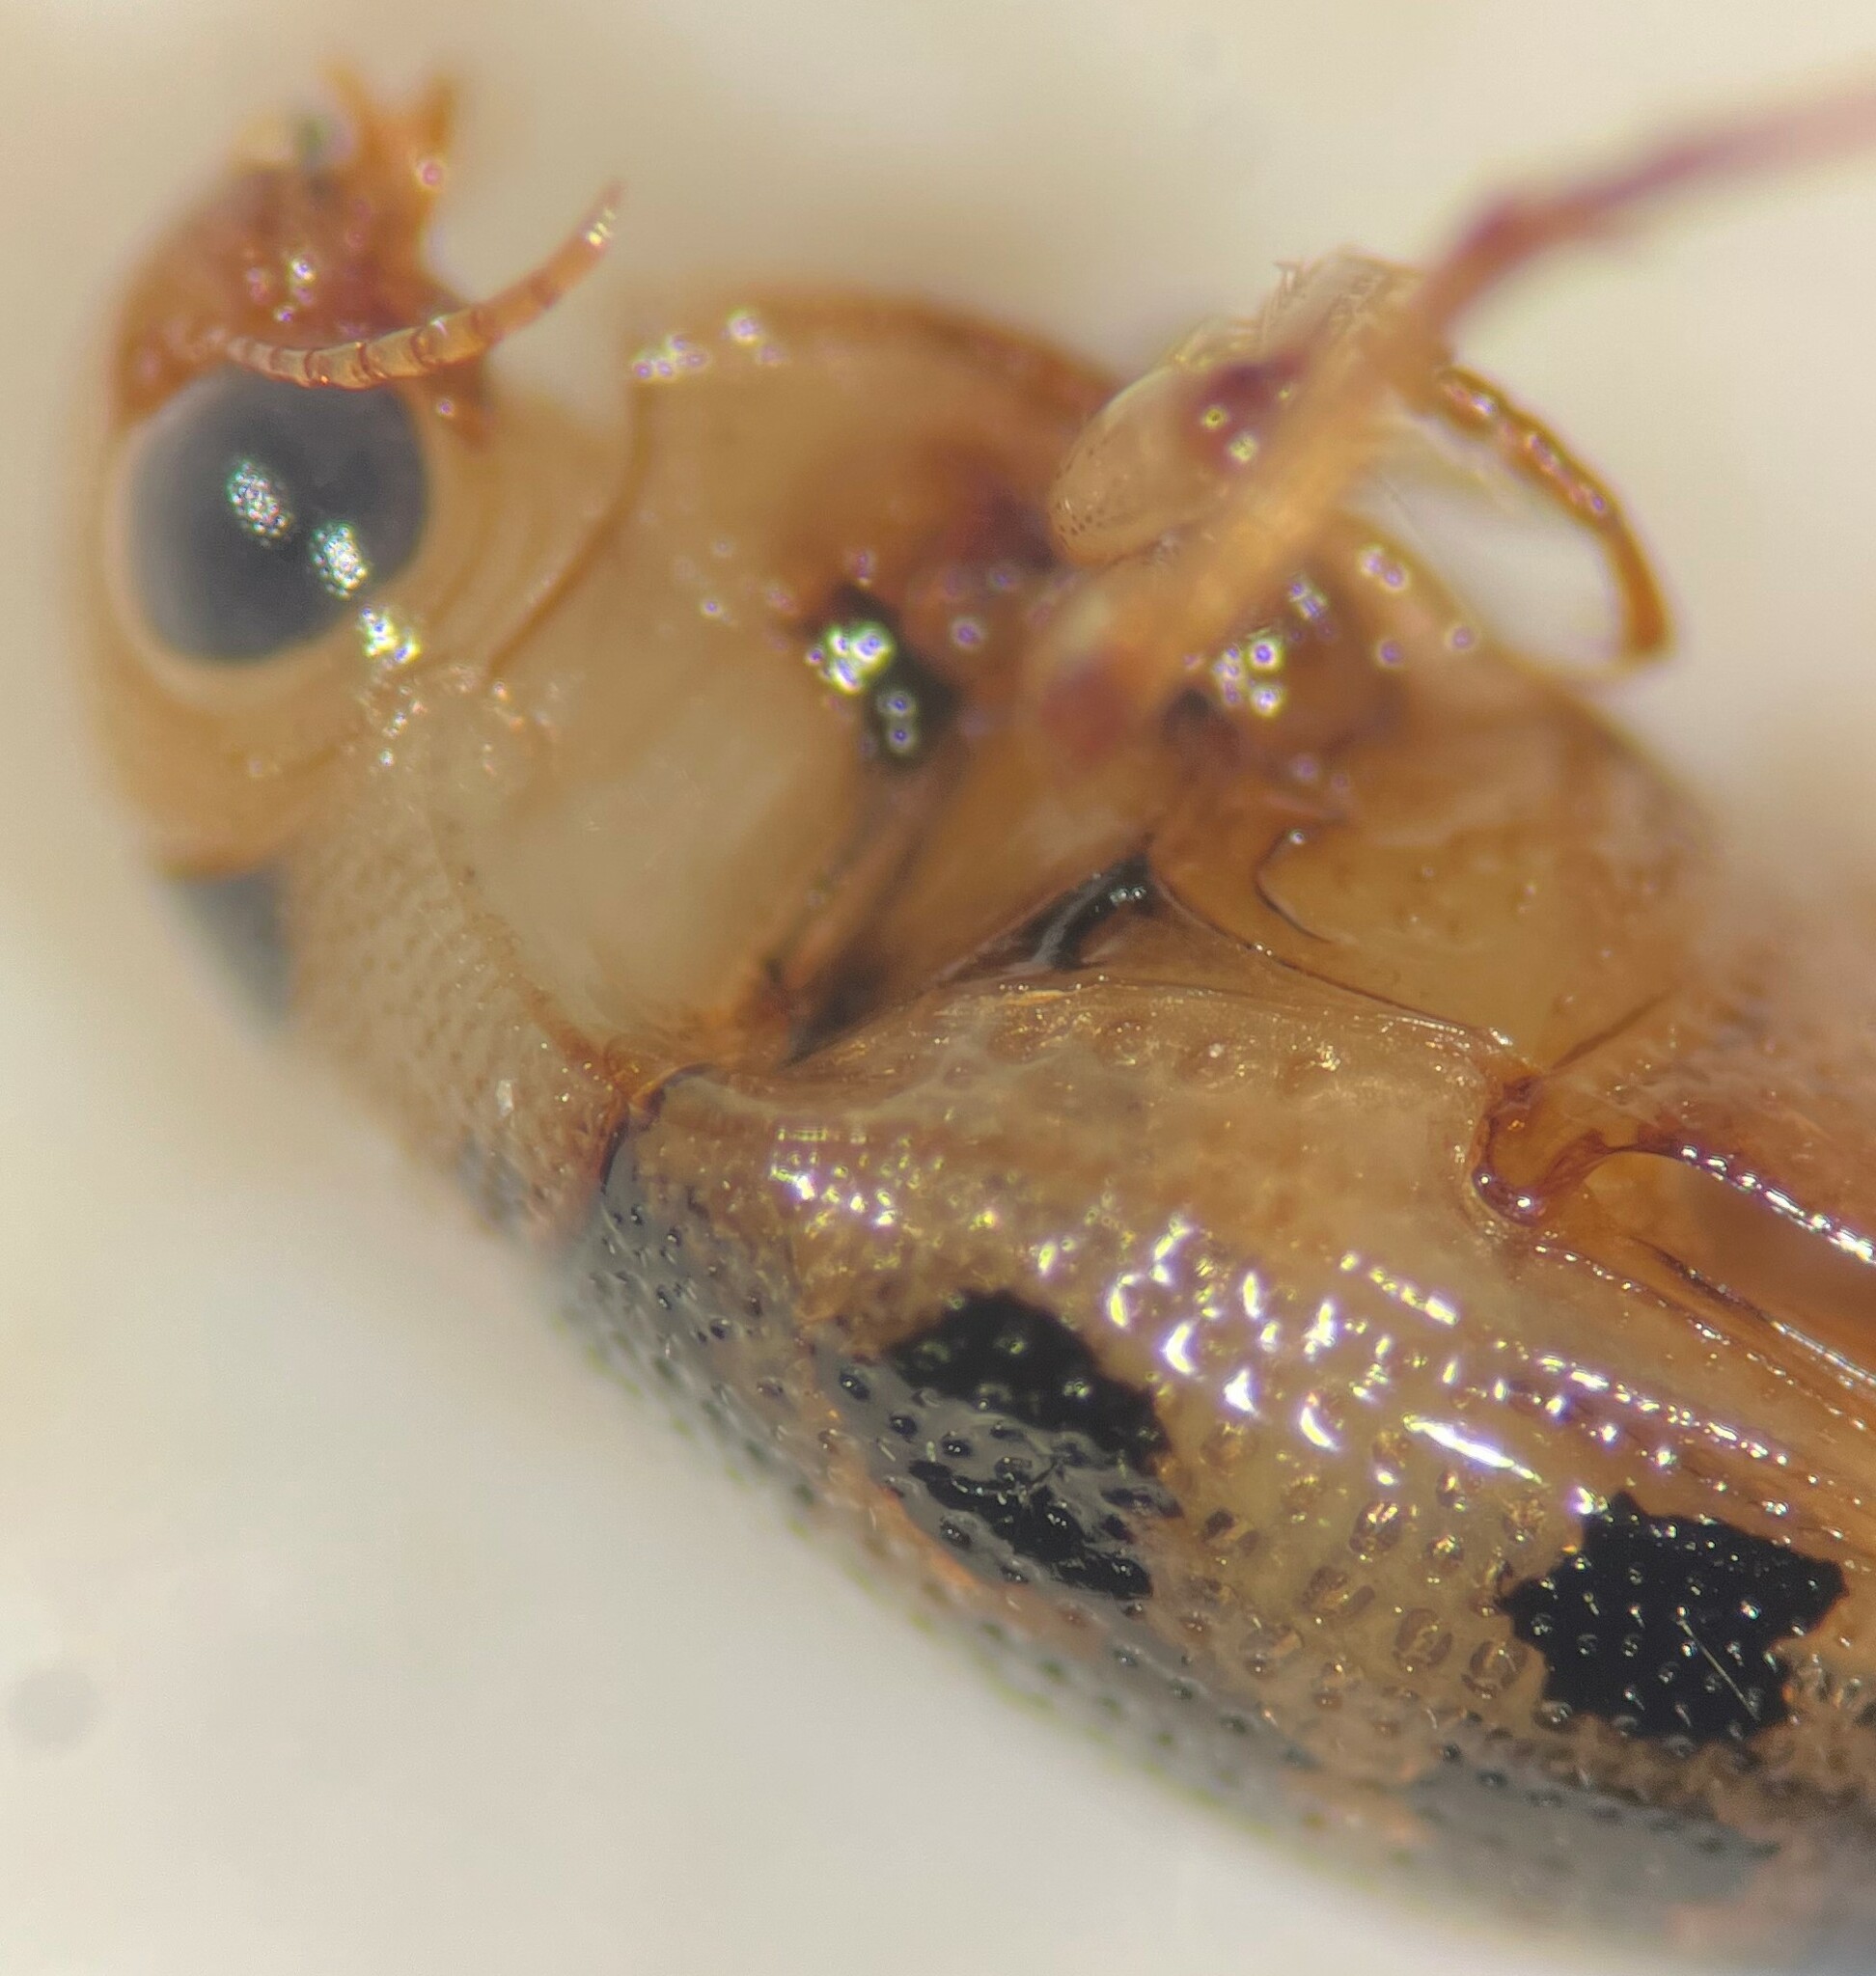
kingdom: Animalia
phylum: Arthropoda
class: Insecta
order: Coleoptera
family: Haliplidae
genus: Haliplus
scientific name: Haliplus pantherinus
